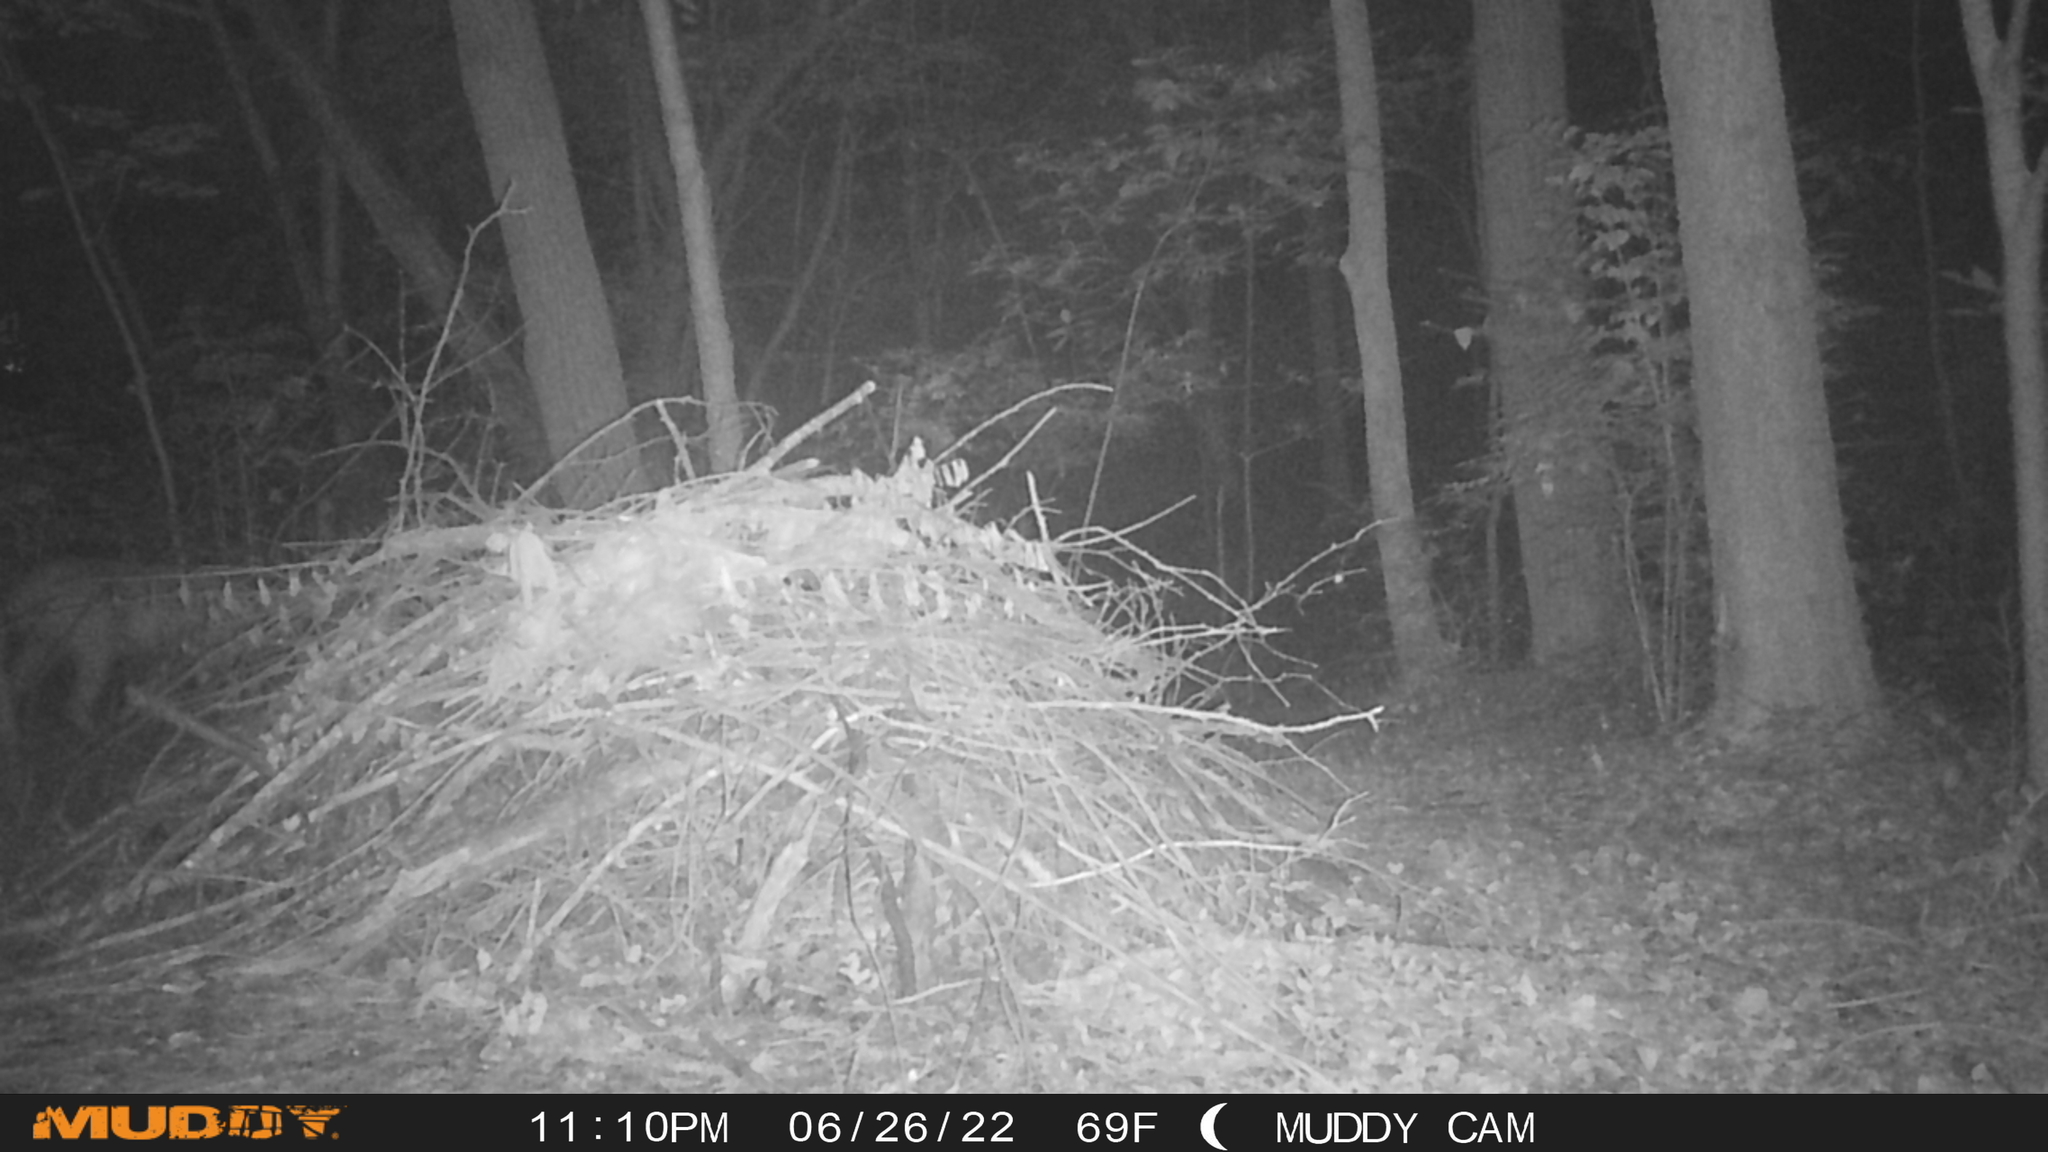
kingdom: Animalia
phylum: Chordata
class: Mammalia
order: Artiodactyla
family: Cervidae
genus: Odocoileus
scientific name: Odocoileus virginianus
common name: White-tailed deer
